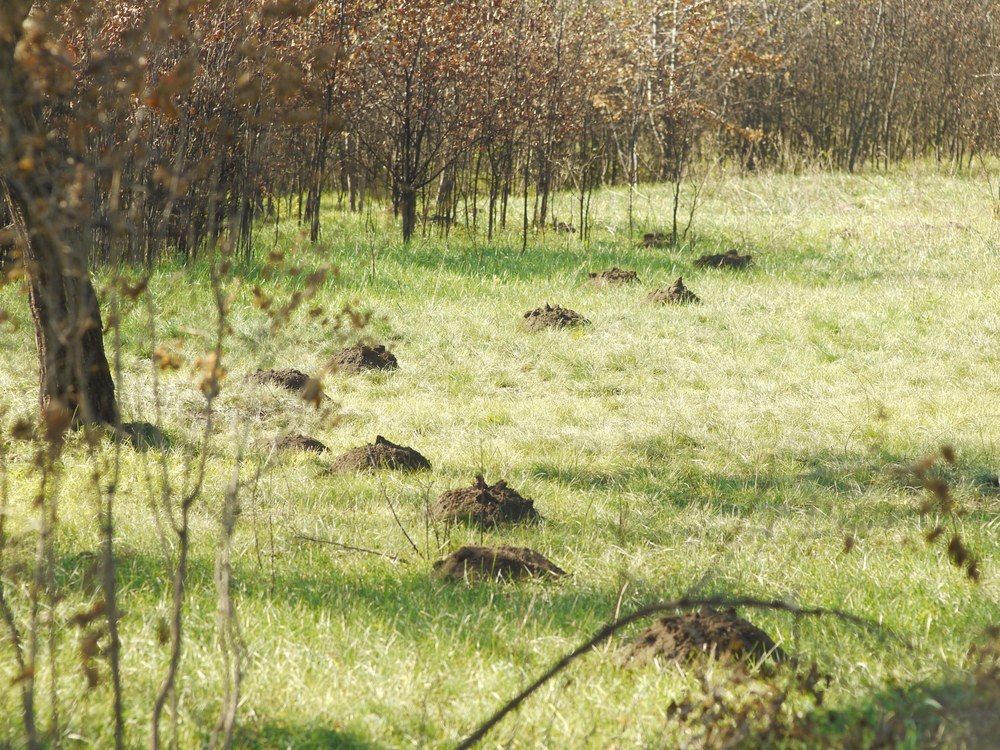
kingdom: Animalia
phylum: Chordata
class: Mammalia
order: Rodentia
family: Spalacidae
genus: Spalax
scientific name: Spalax zemni
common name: Podolsk blind mole rat
